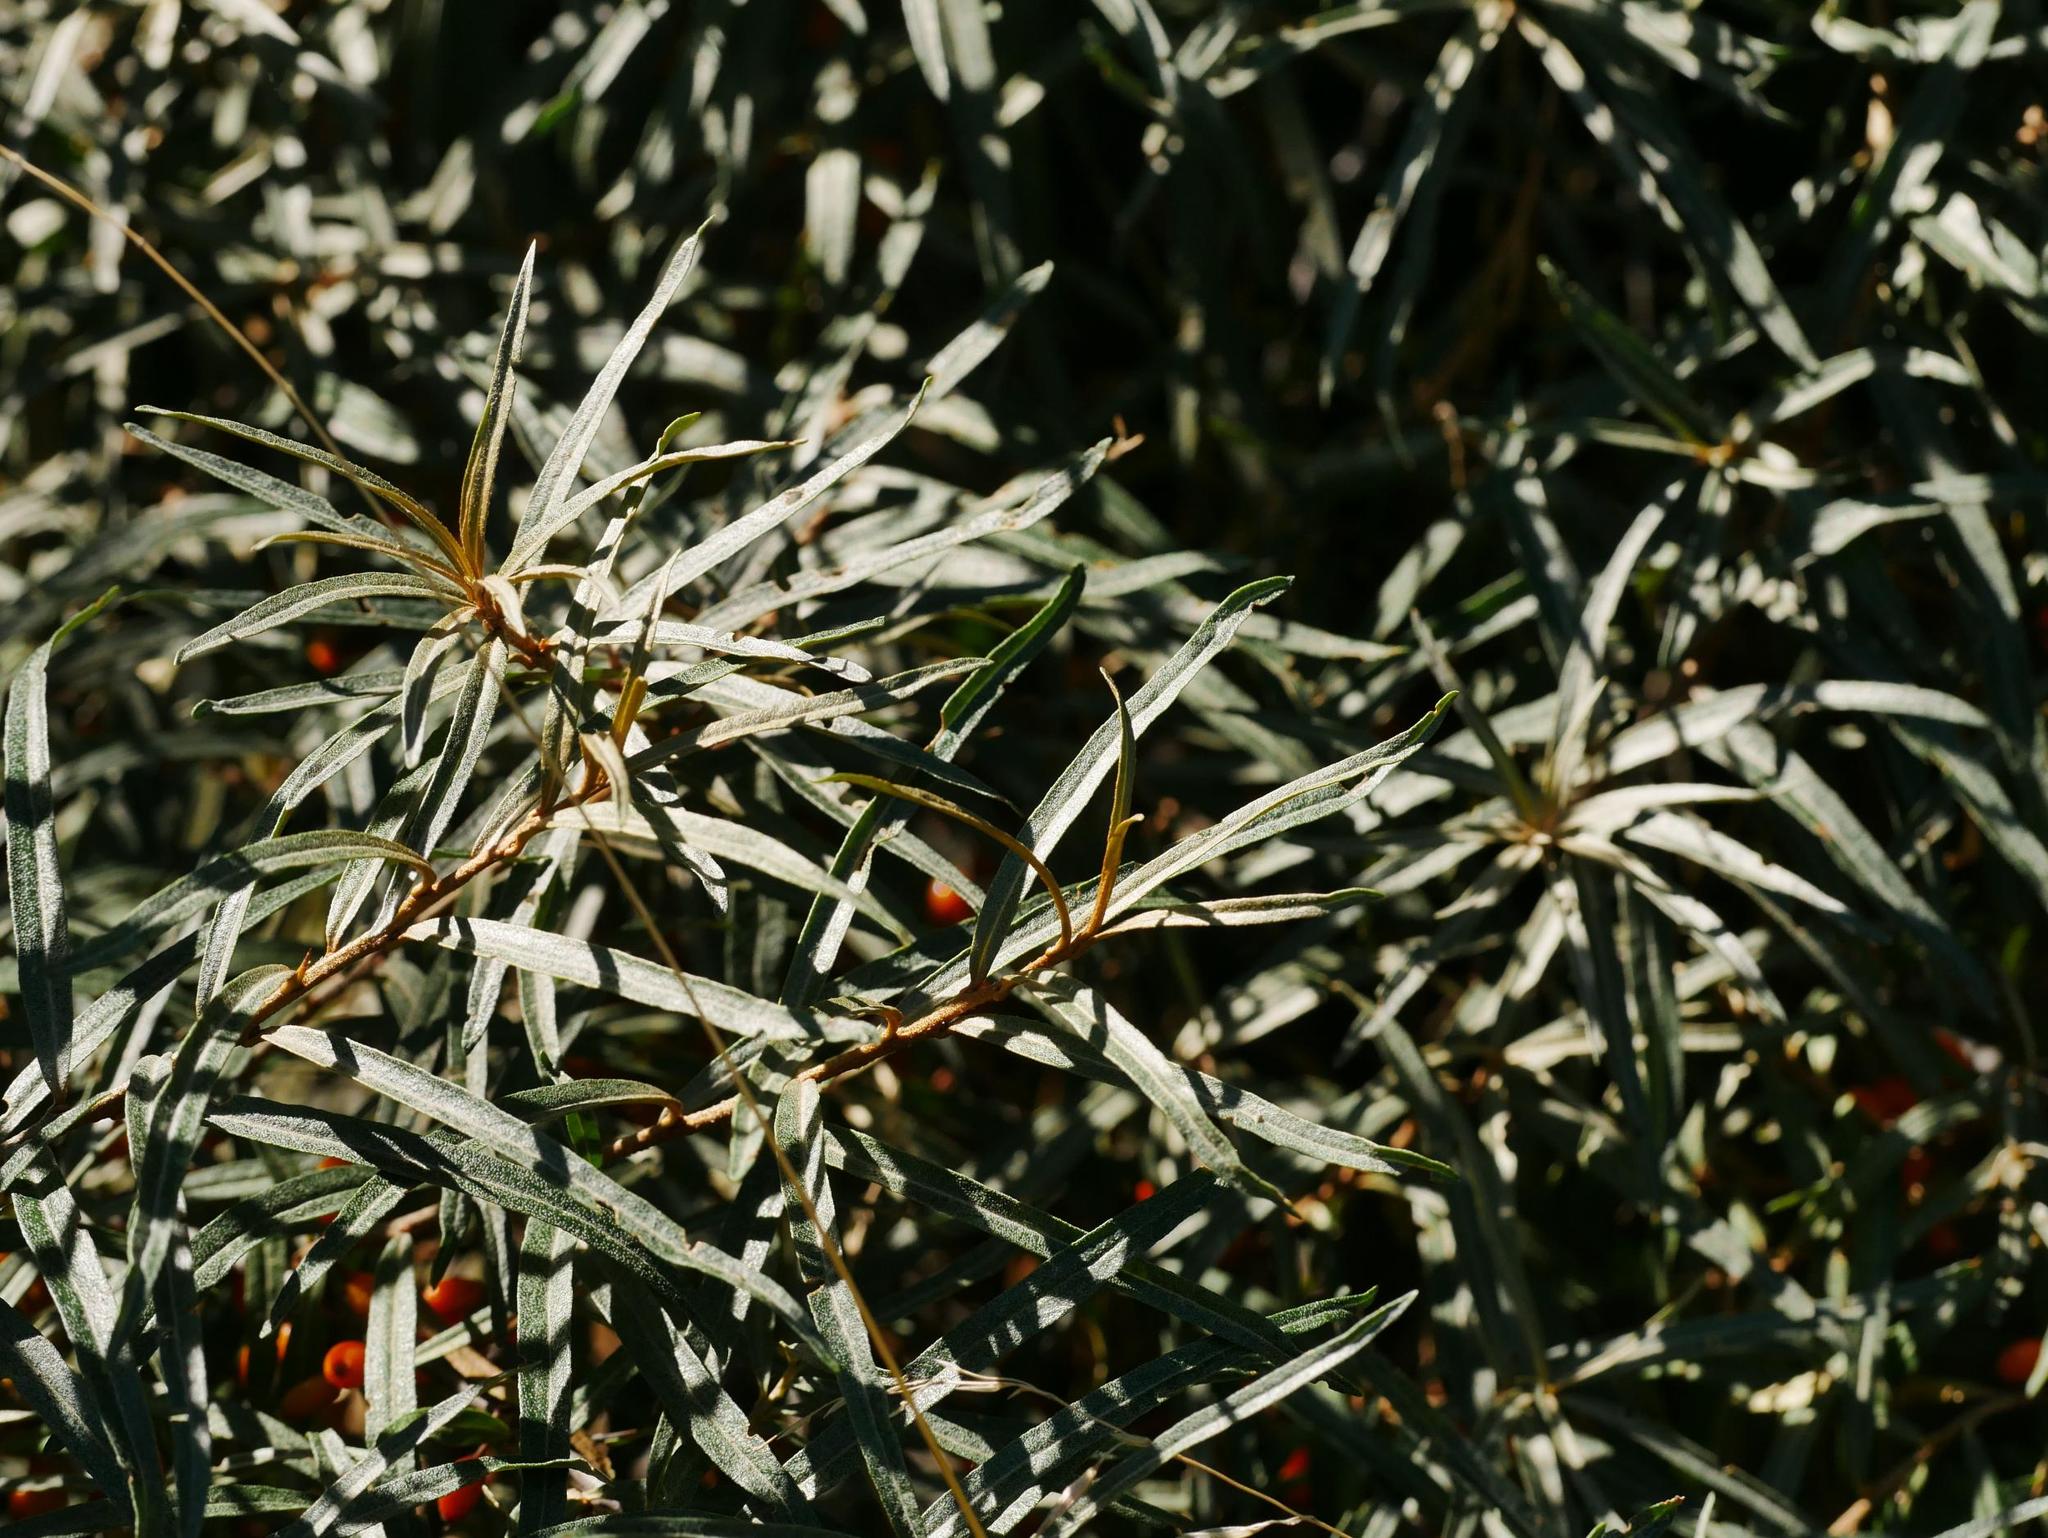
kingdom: Plantae
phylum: Tracheophyta
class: Magnoliopsida
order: Rosales
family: Elaeagnaceae
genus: Hippophae
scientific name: Hippophae rhamnoides
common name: Sea-buckthorn
